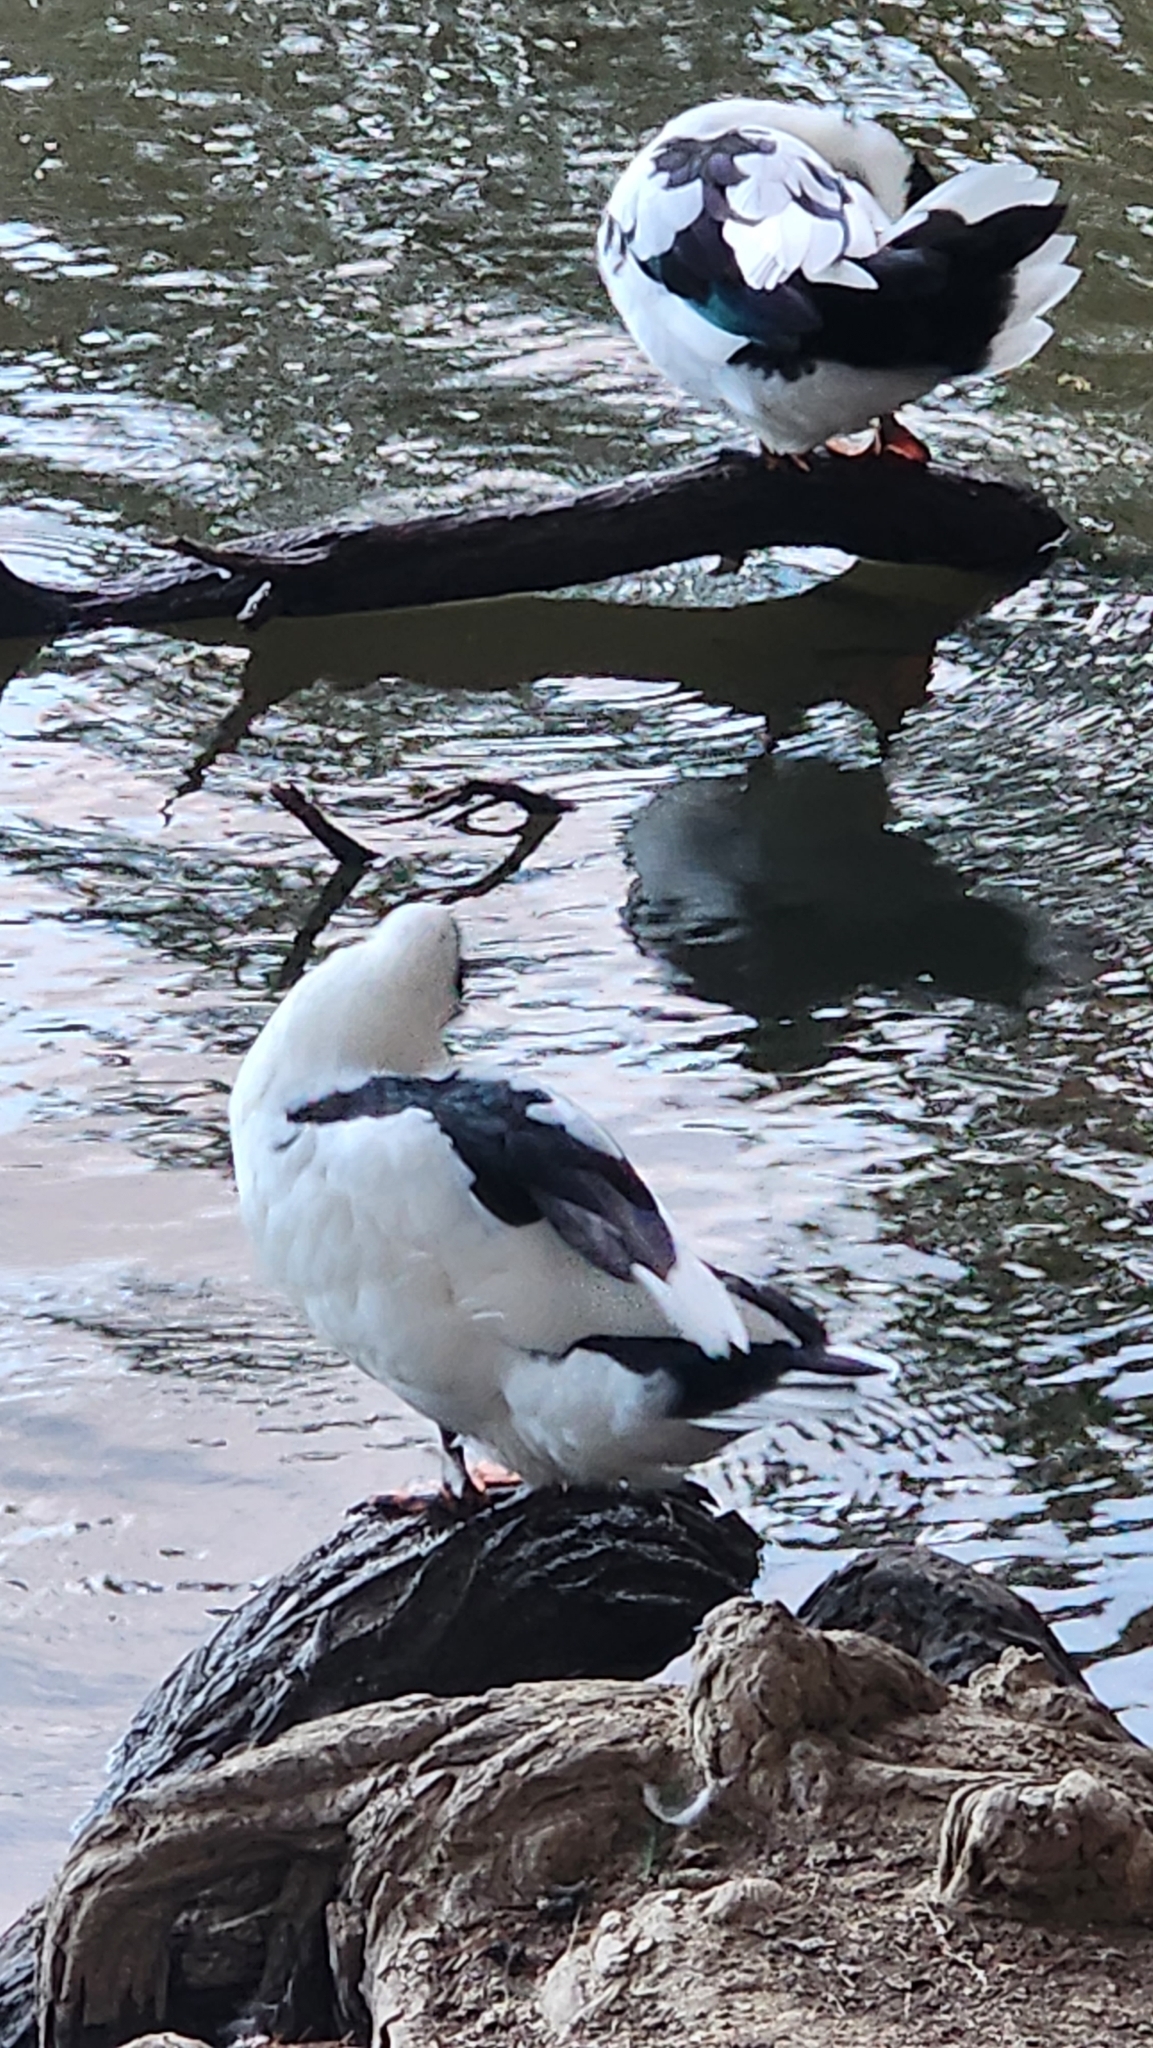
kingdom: Animalia
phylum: Chordata
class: Aves
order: Anseriformes
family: Anatidae
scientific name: Anatidae
